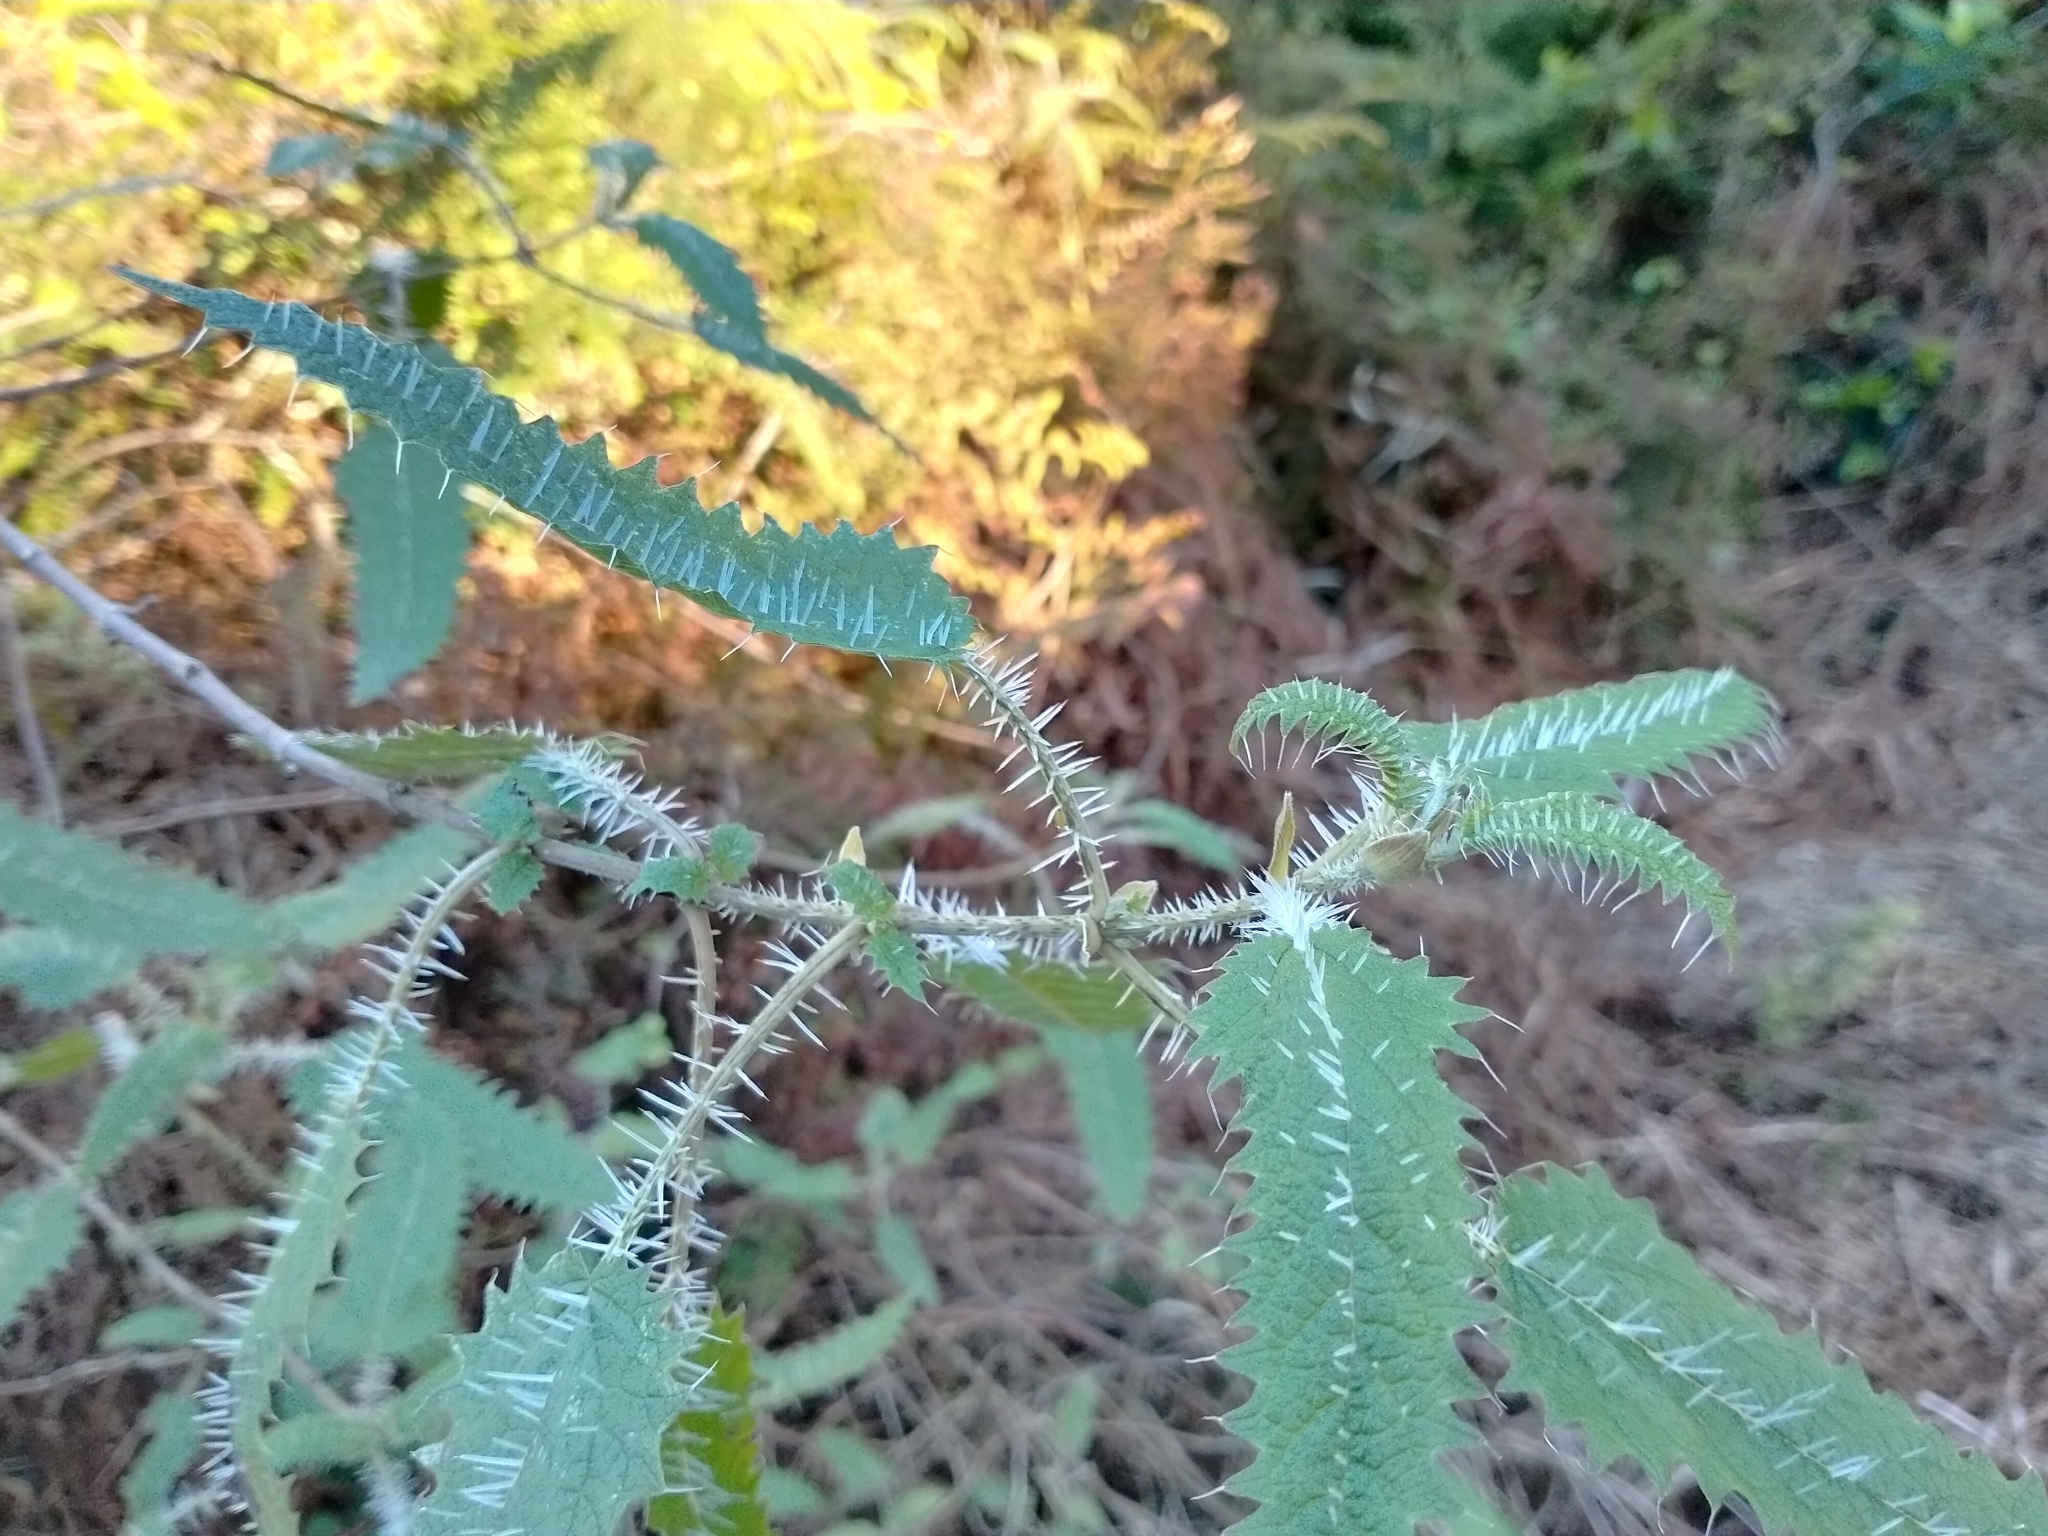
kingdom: Plantae
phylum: Tracheophyta
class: Magnoliopsida
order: Rosales
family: Urticaceae
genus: Urtica
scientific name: Urtica ferox
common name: Tree nettle
